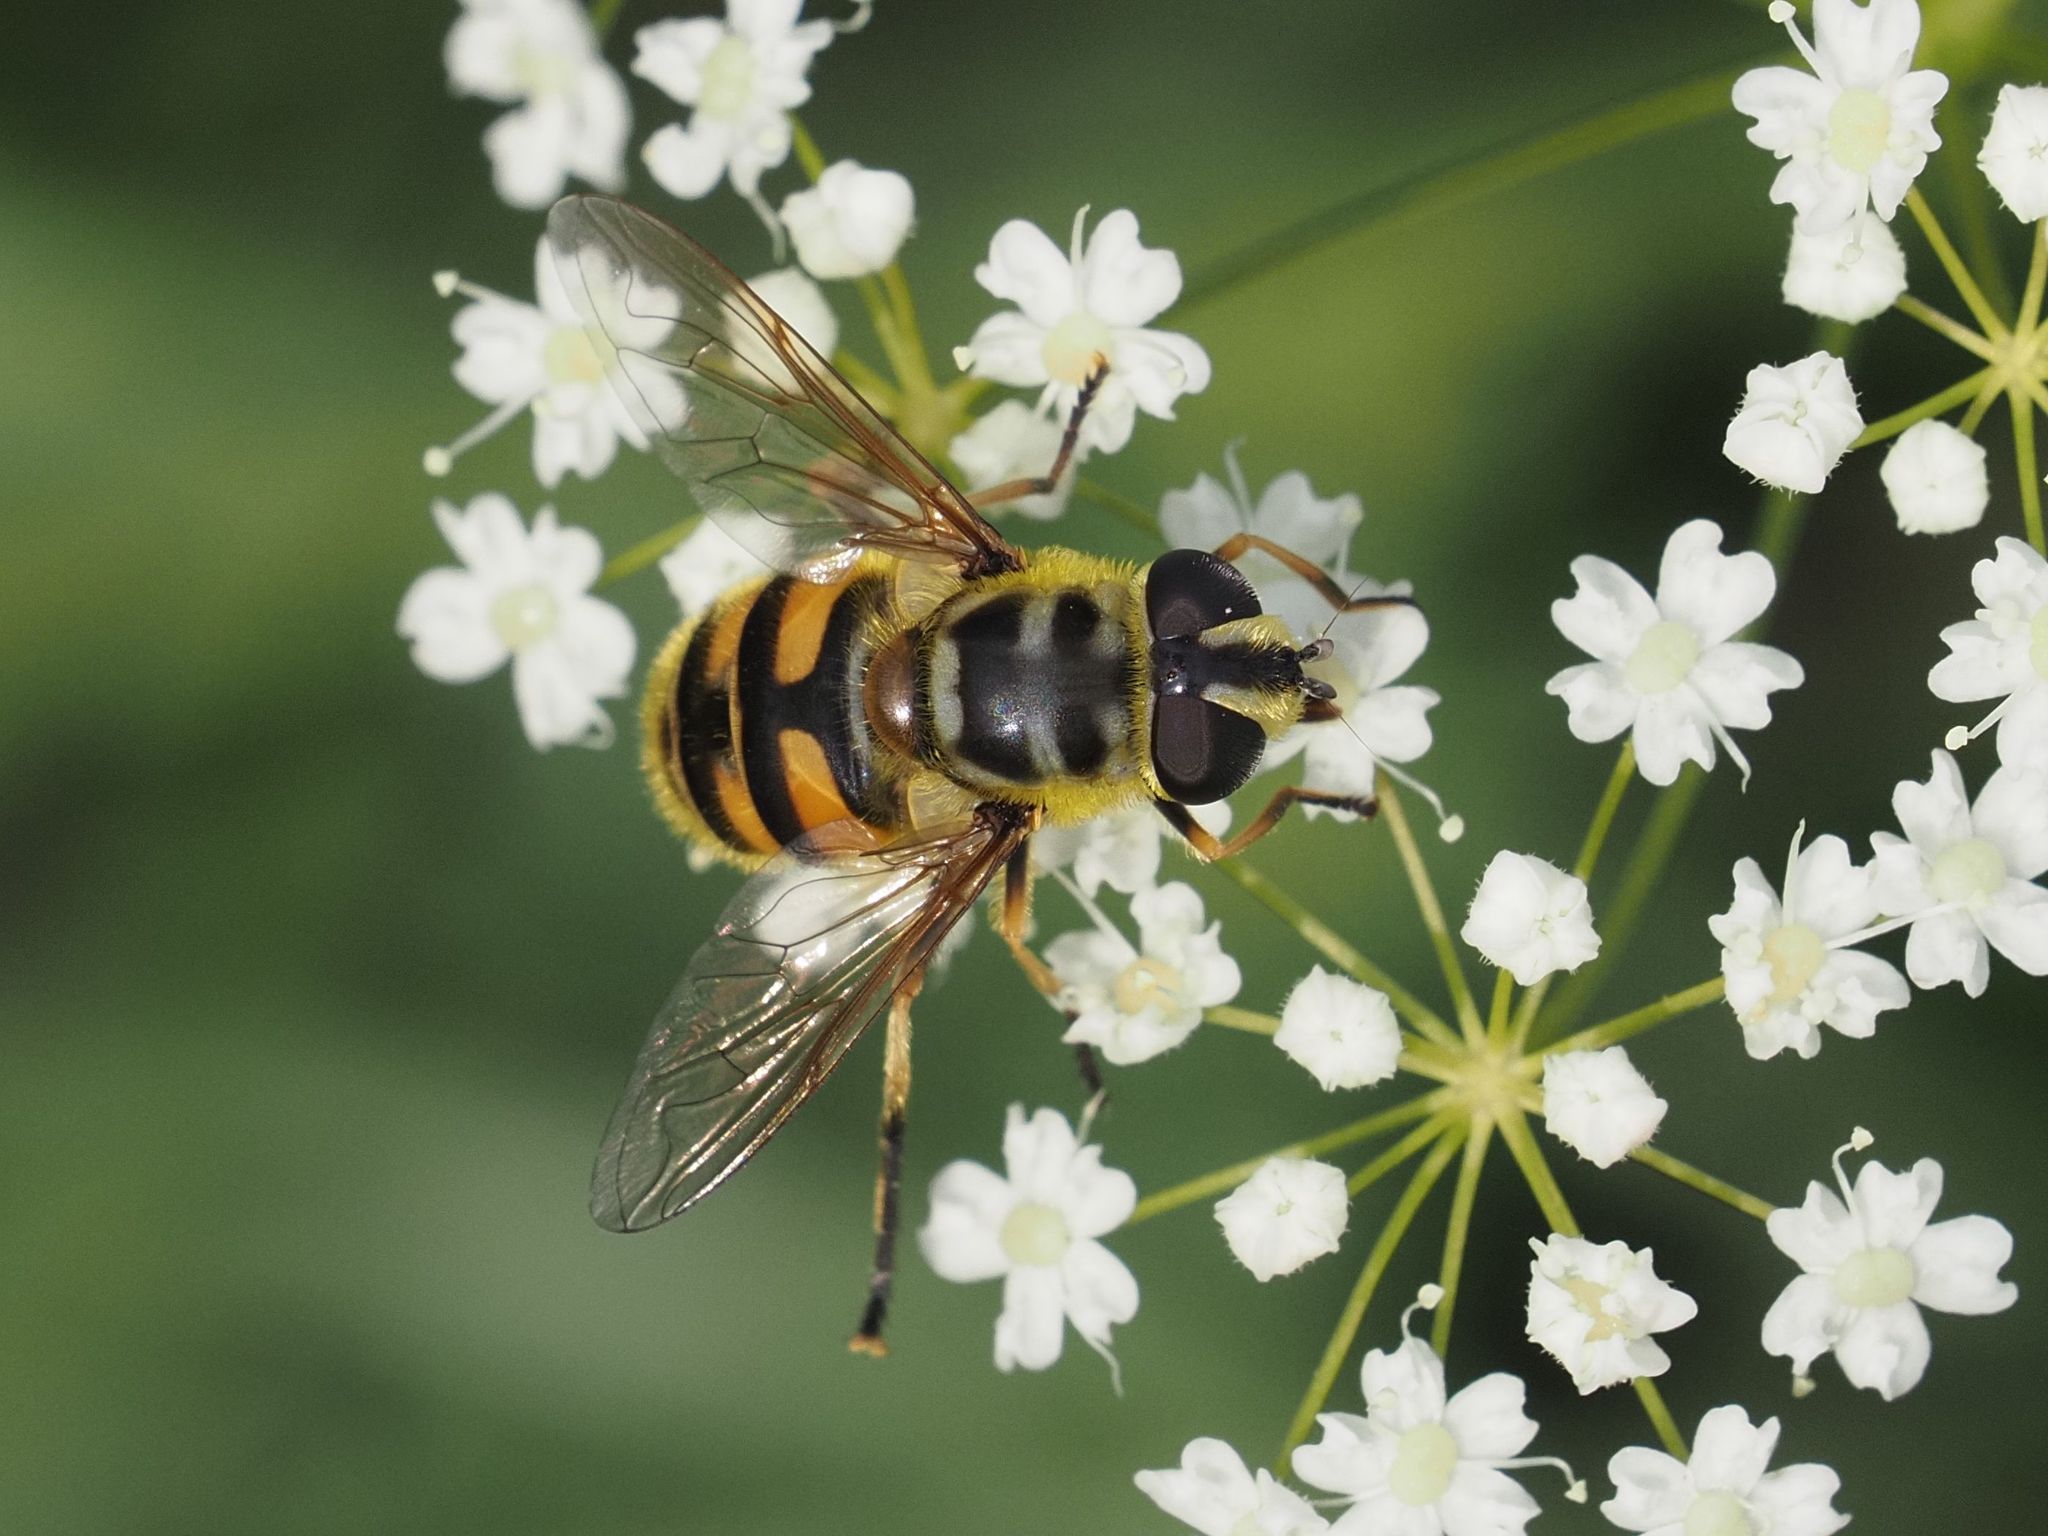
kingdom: Animalia
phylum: Arthropoda
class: Insecta
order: Diptera
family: Syrphidae
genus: Myathropa
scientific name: Myathropa florea
